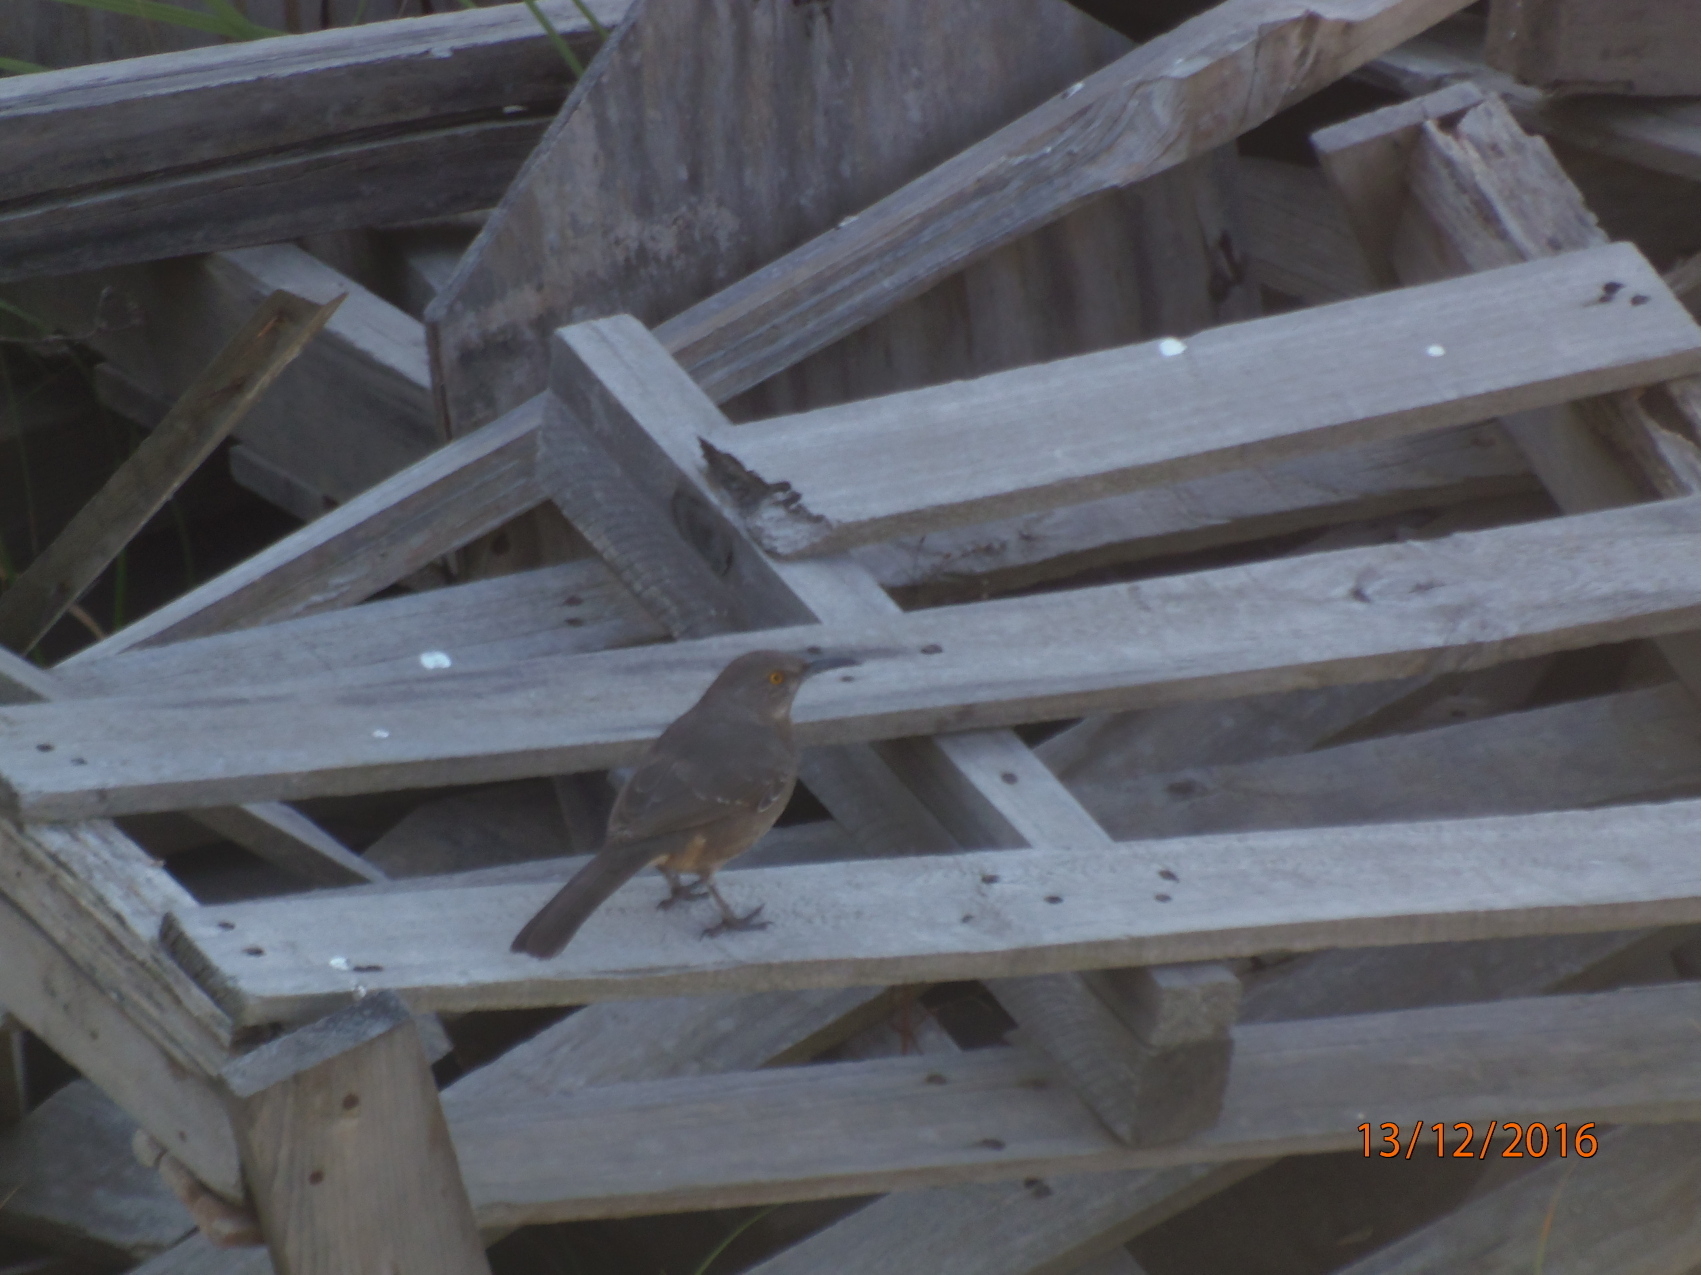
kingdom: Animalia
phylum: Chordata
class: Aves
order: Passeriformes
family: Mimidae
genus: Toxostoma
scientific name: Toxostoma curvirostre
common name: Curve-billed thrasher
